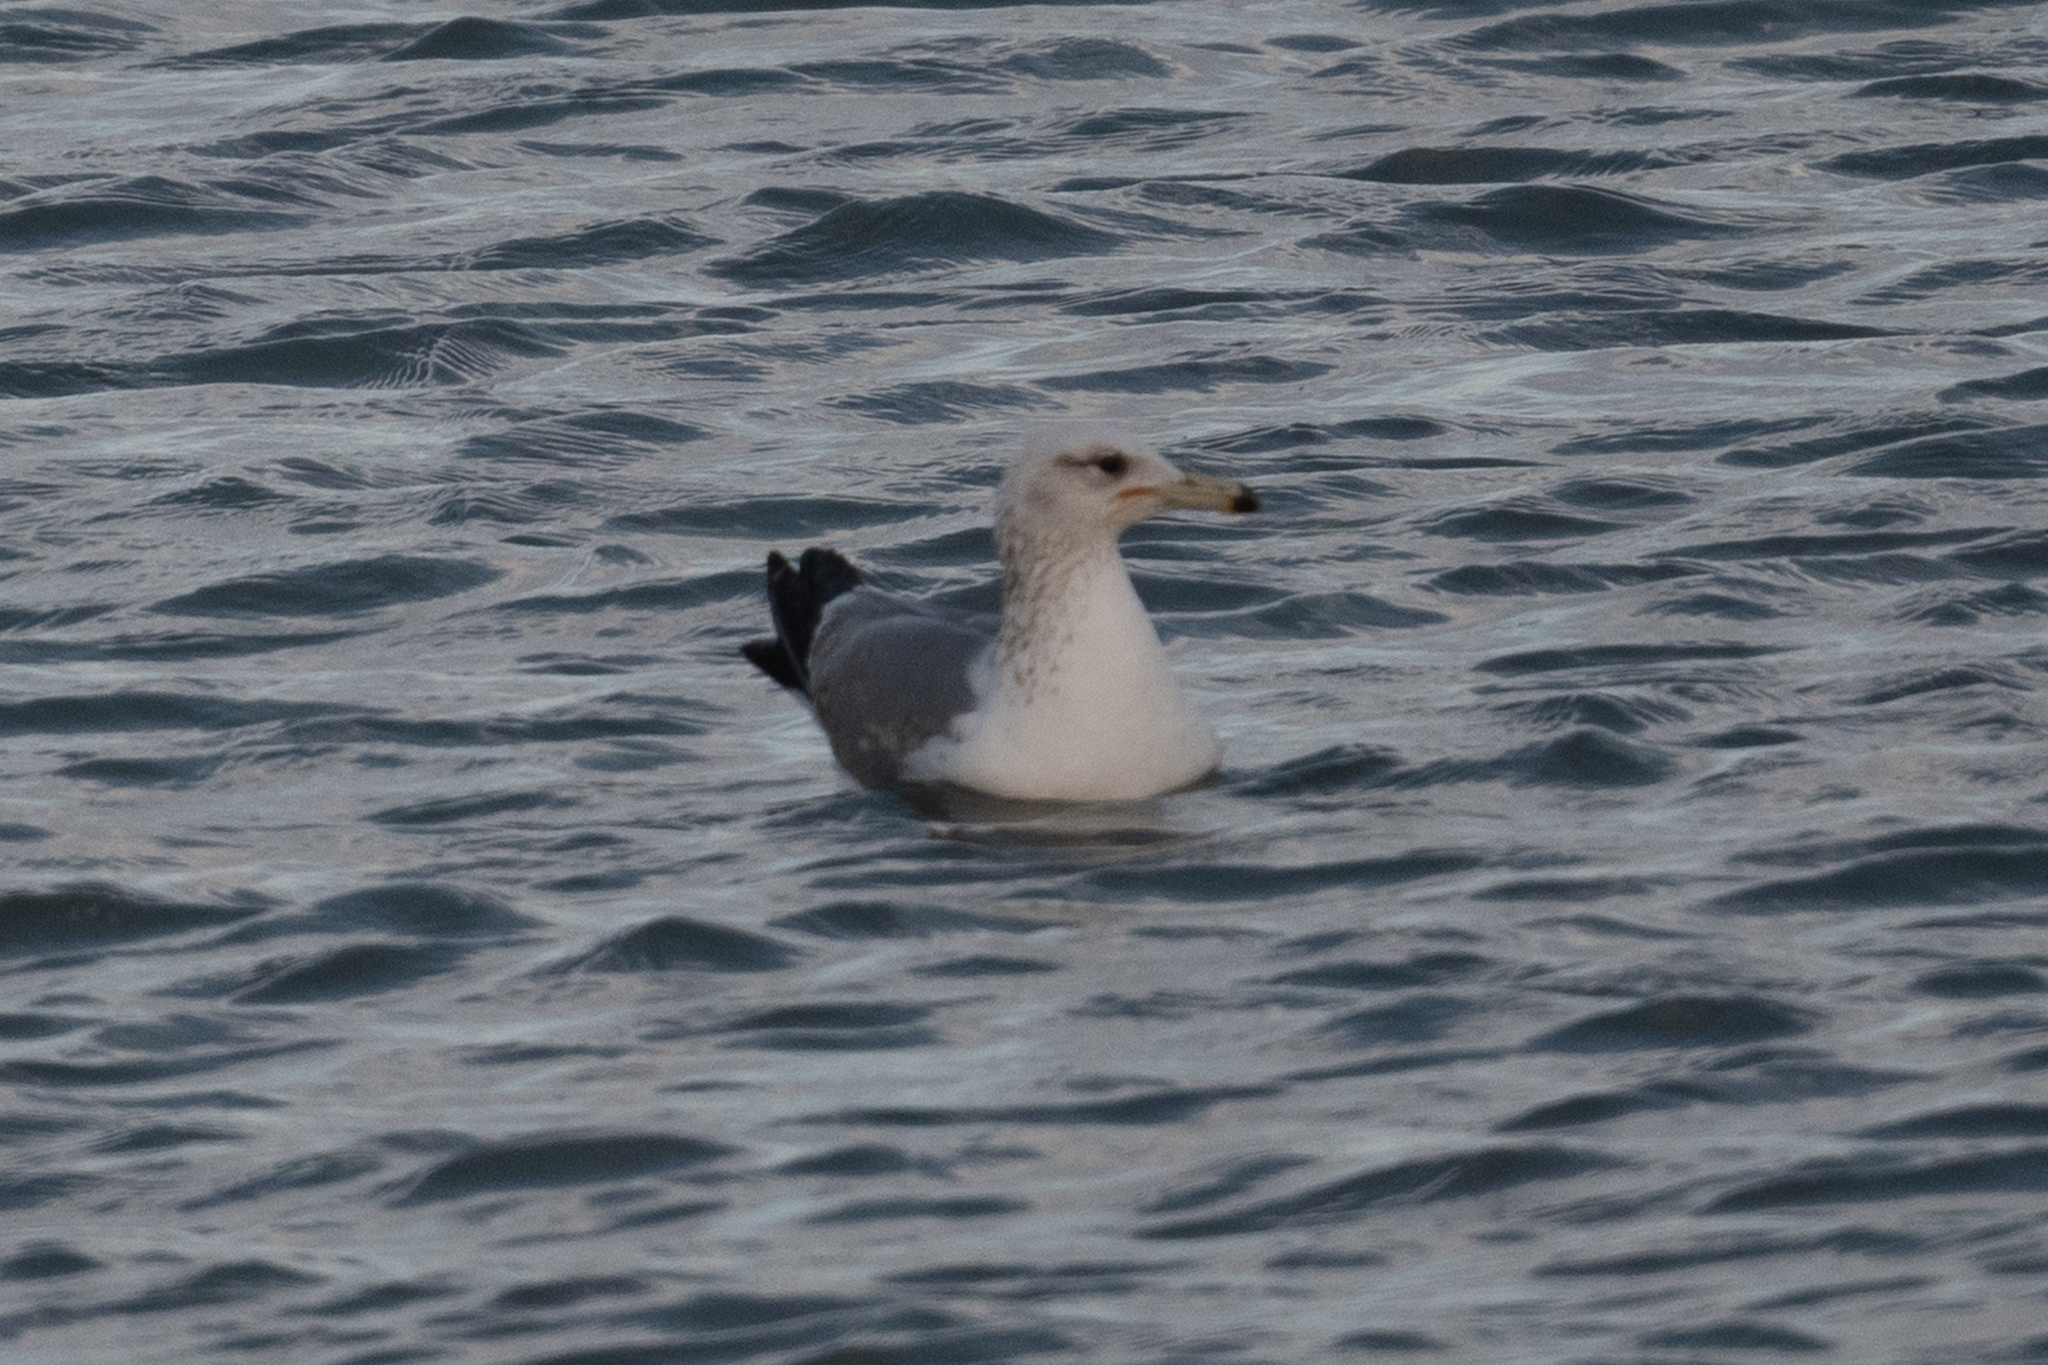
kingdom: Animalia
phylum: Chordata
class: Aves
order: Charadriiformes
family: Laridae
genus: Larus
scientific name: Larus californicus
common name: California gull
